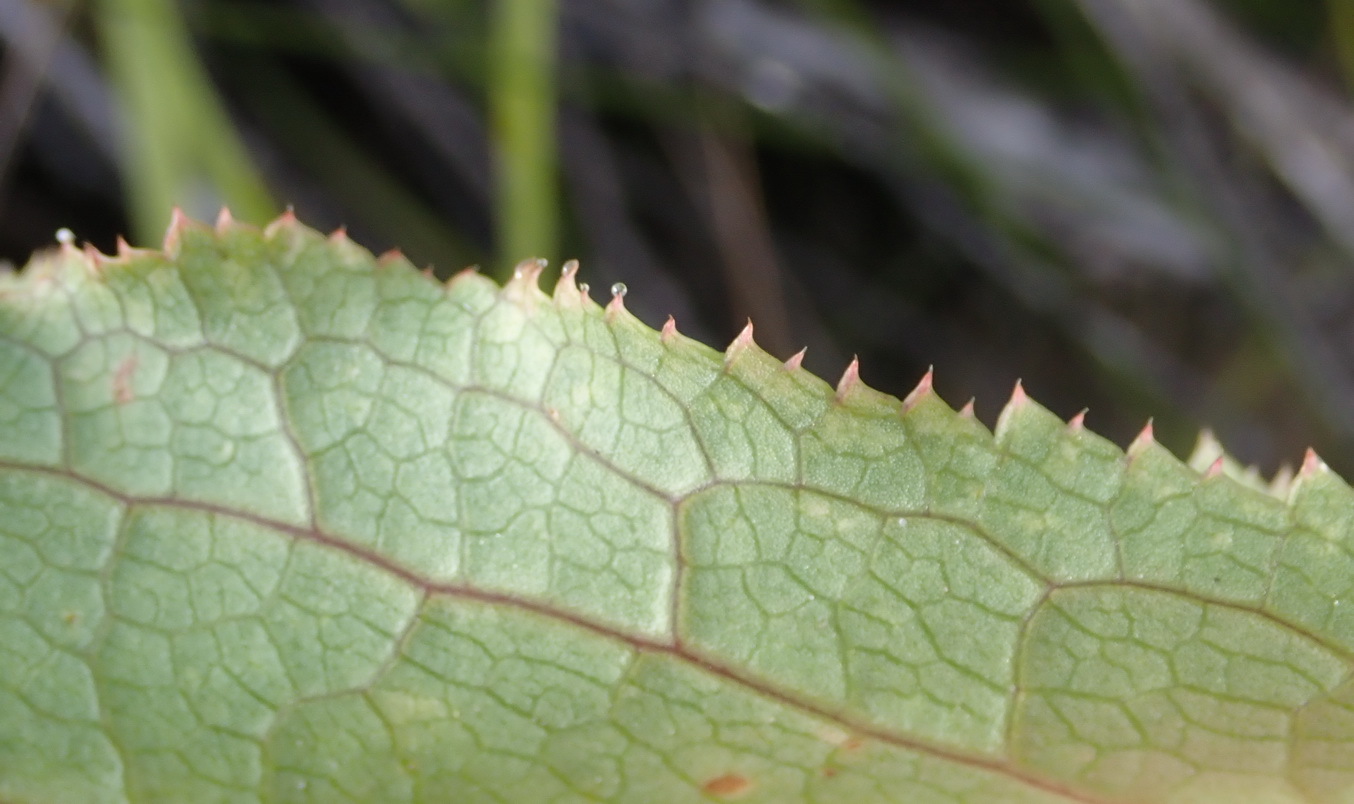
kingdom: Plantae
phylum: Tracheophyta
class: Magnoliopsida
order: Apiales
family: Apiaceae
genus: Lichtensteinia
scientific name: Lichtensteinia trifida
